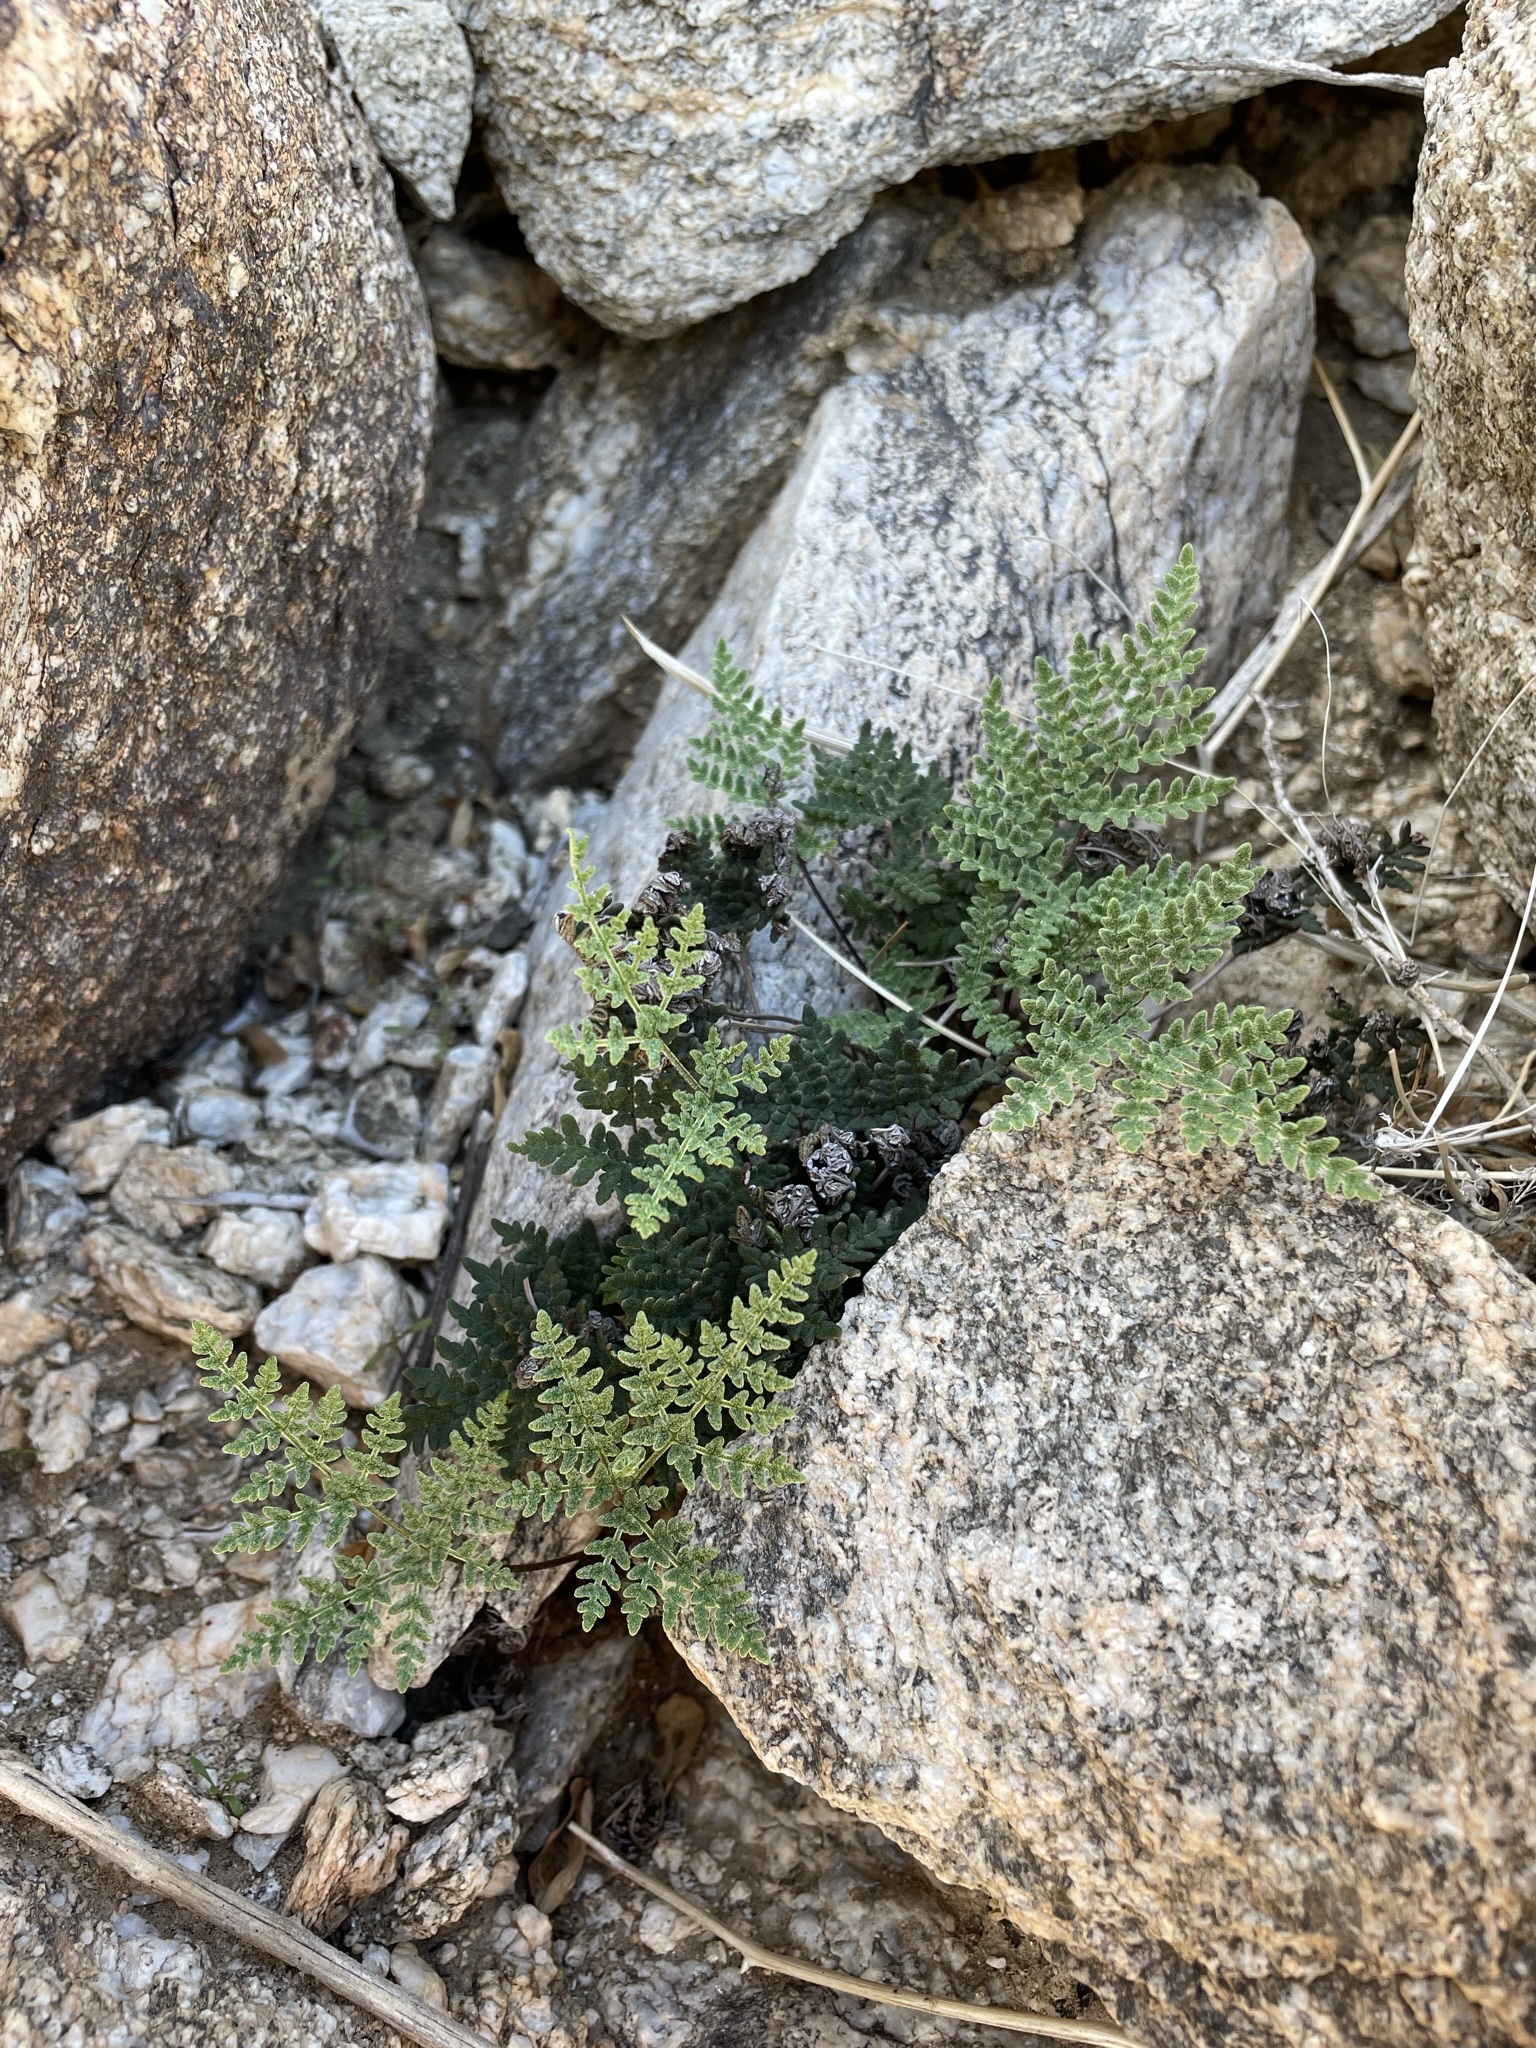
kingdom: Plantae
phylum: Tracheophyta
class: Polypodiopsida
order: Polypodiales
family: Pteridaceae
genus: Notholaena
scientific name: Notholaena californica
